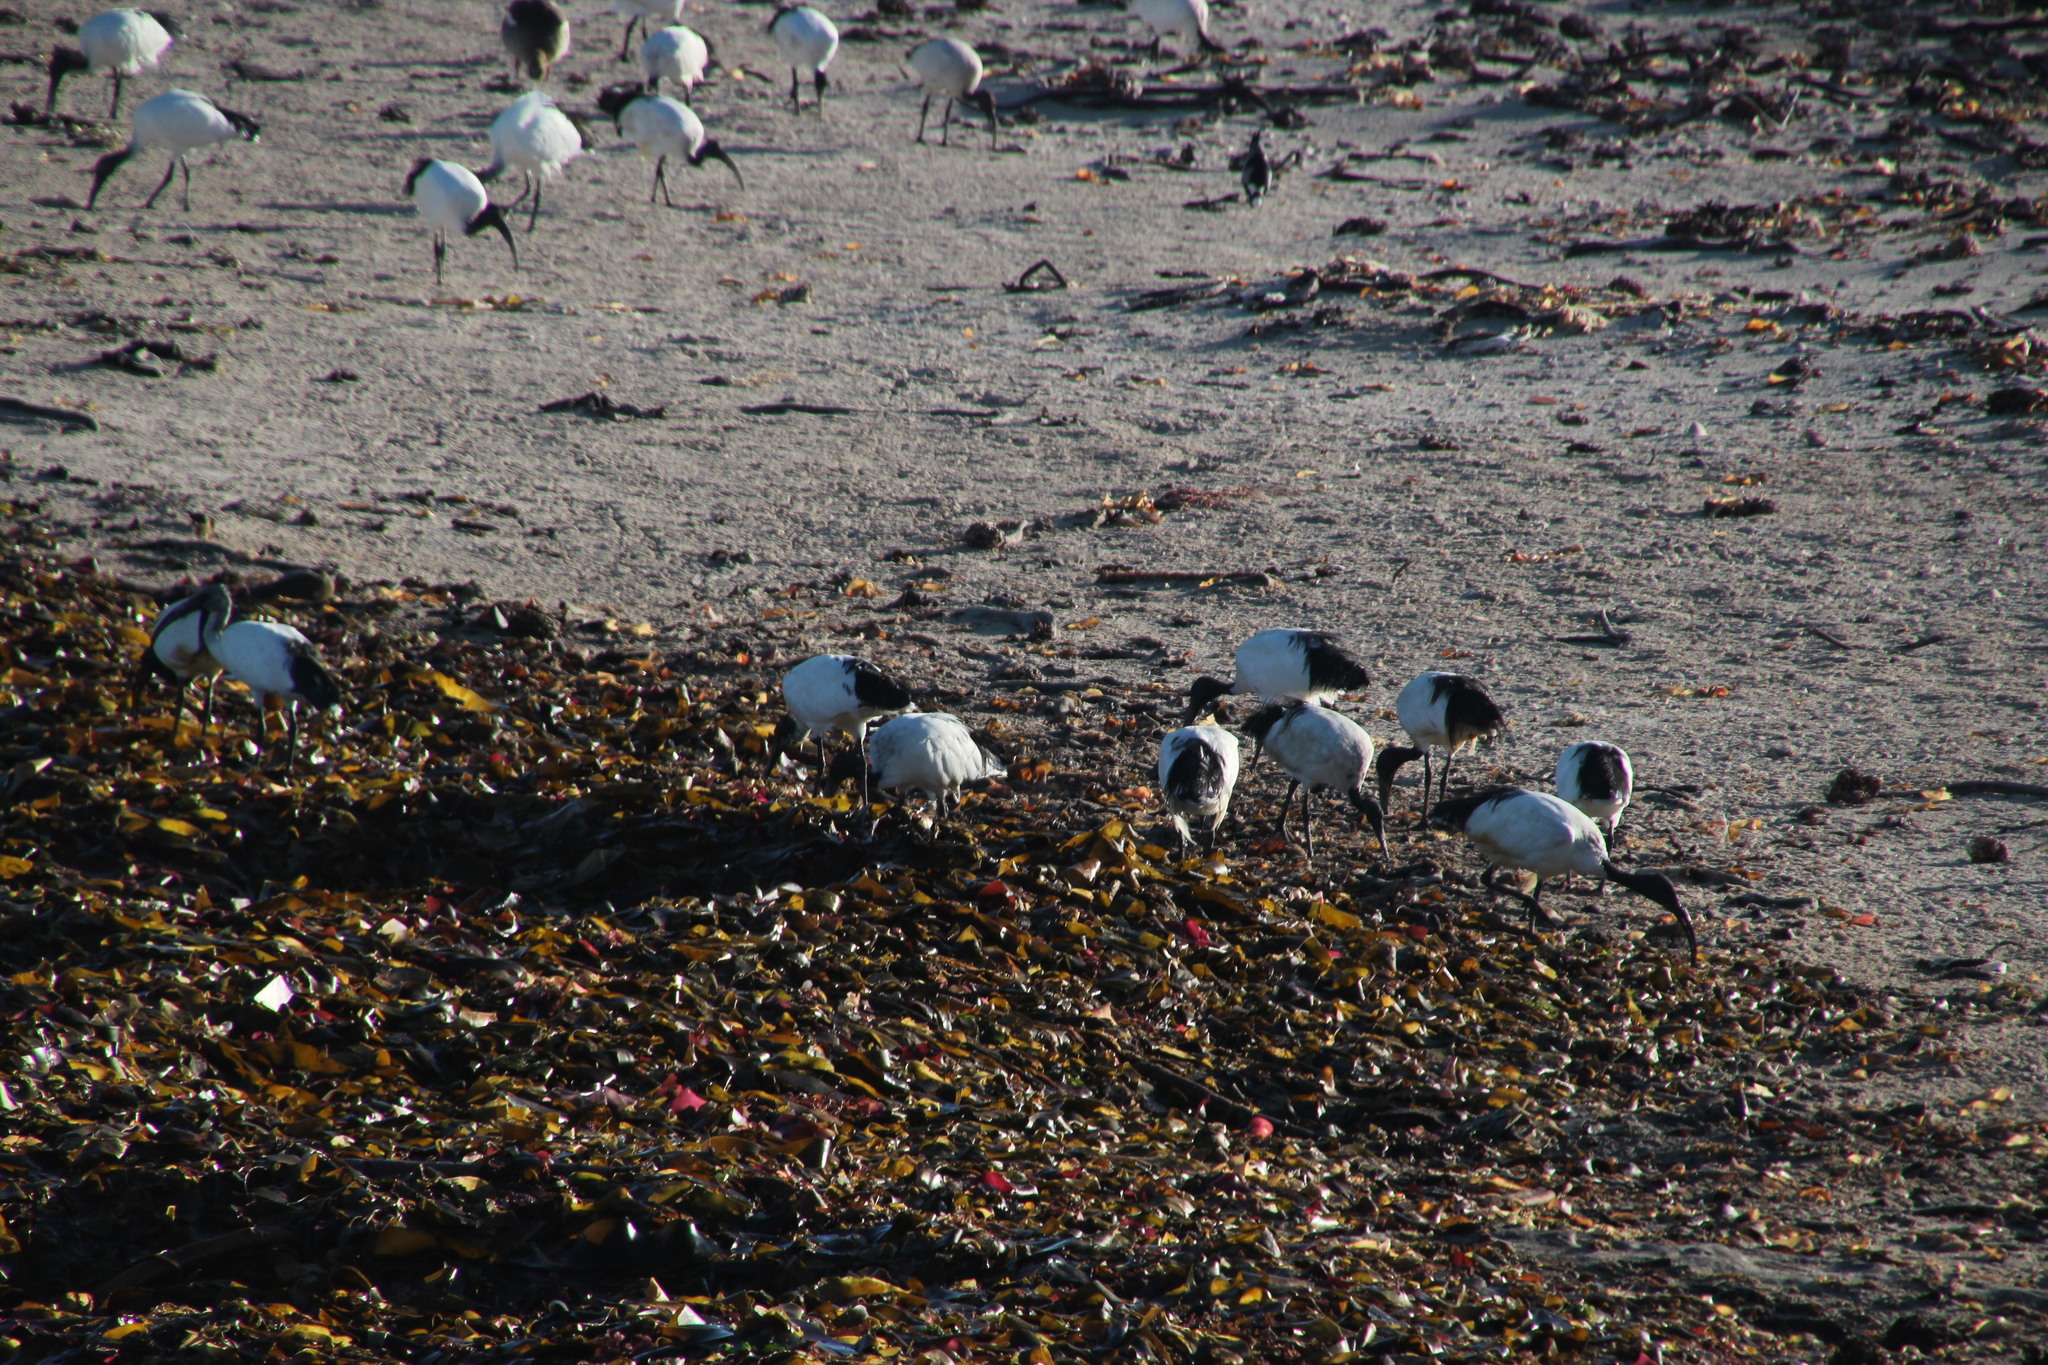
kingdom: Animalia
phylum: Chordata
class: Aves
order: Pelecaniformes
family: Threskiornithidae
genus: Threskiornis
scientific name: Threskiornis aethiopicus
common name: Sacred ibis
